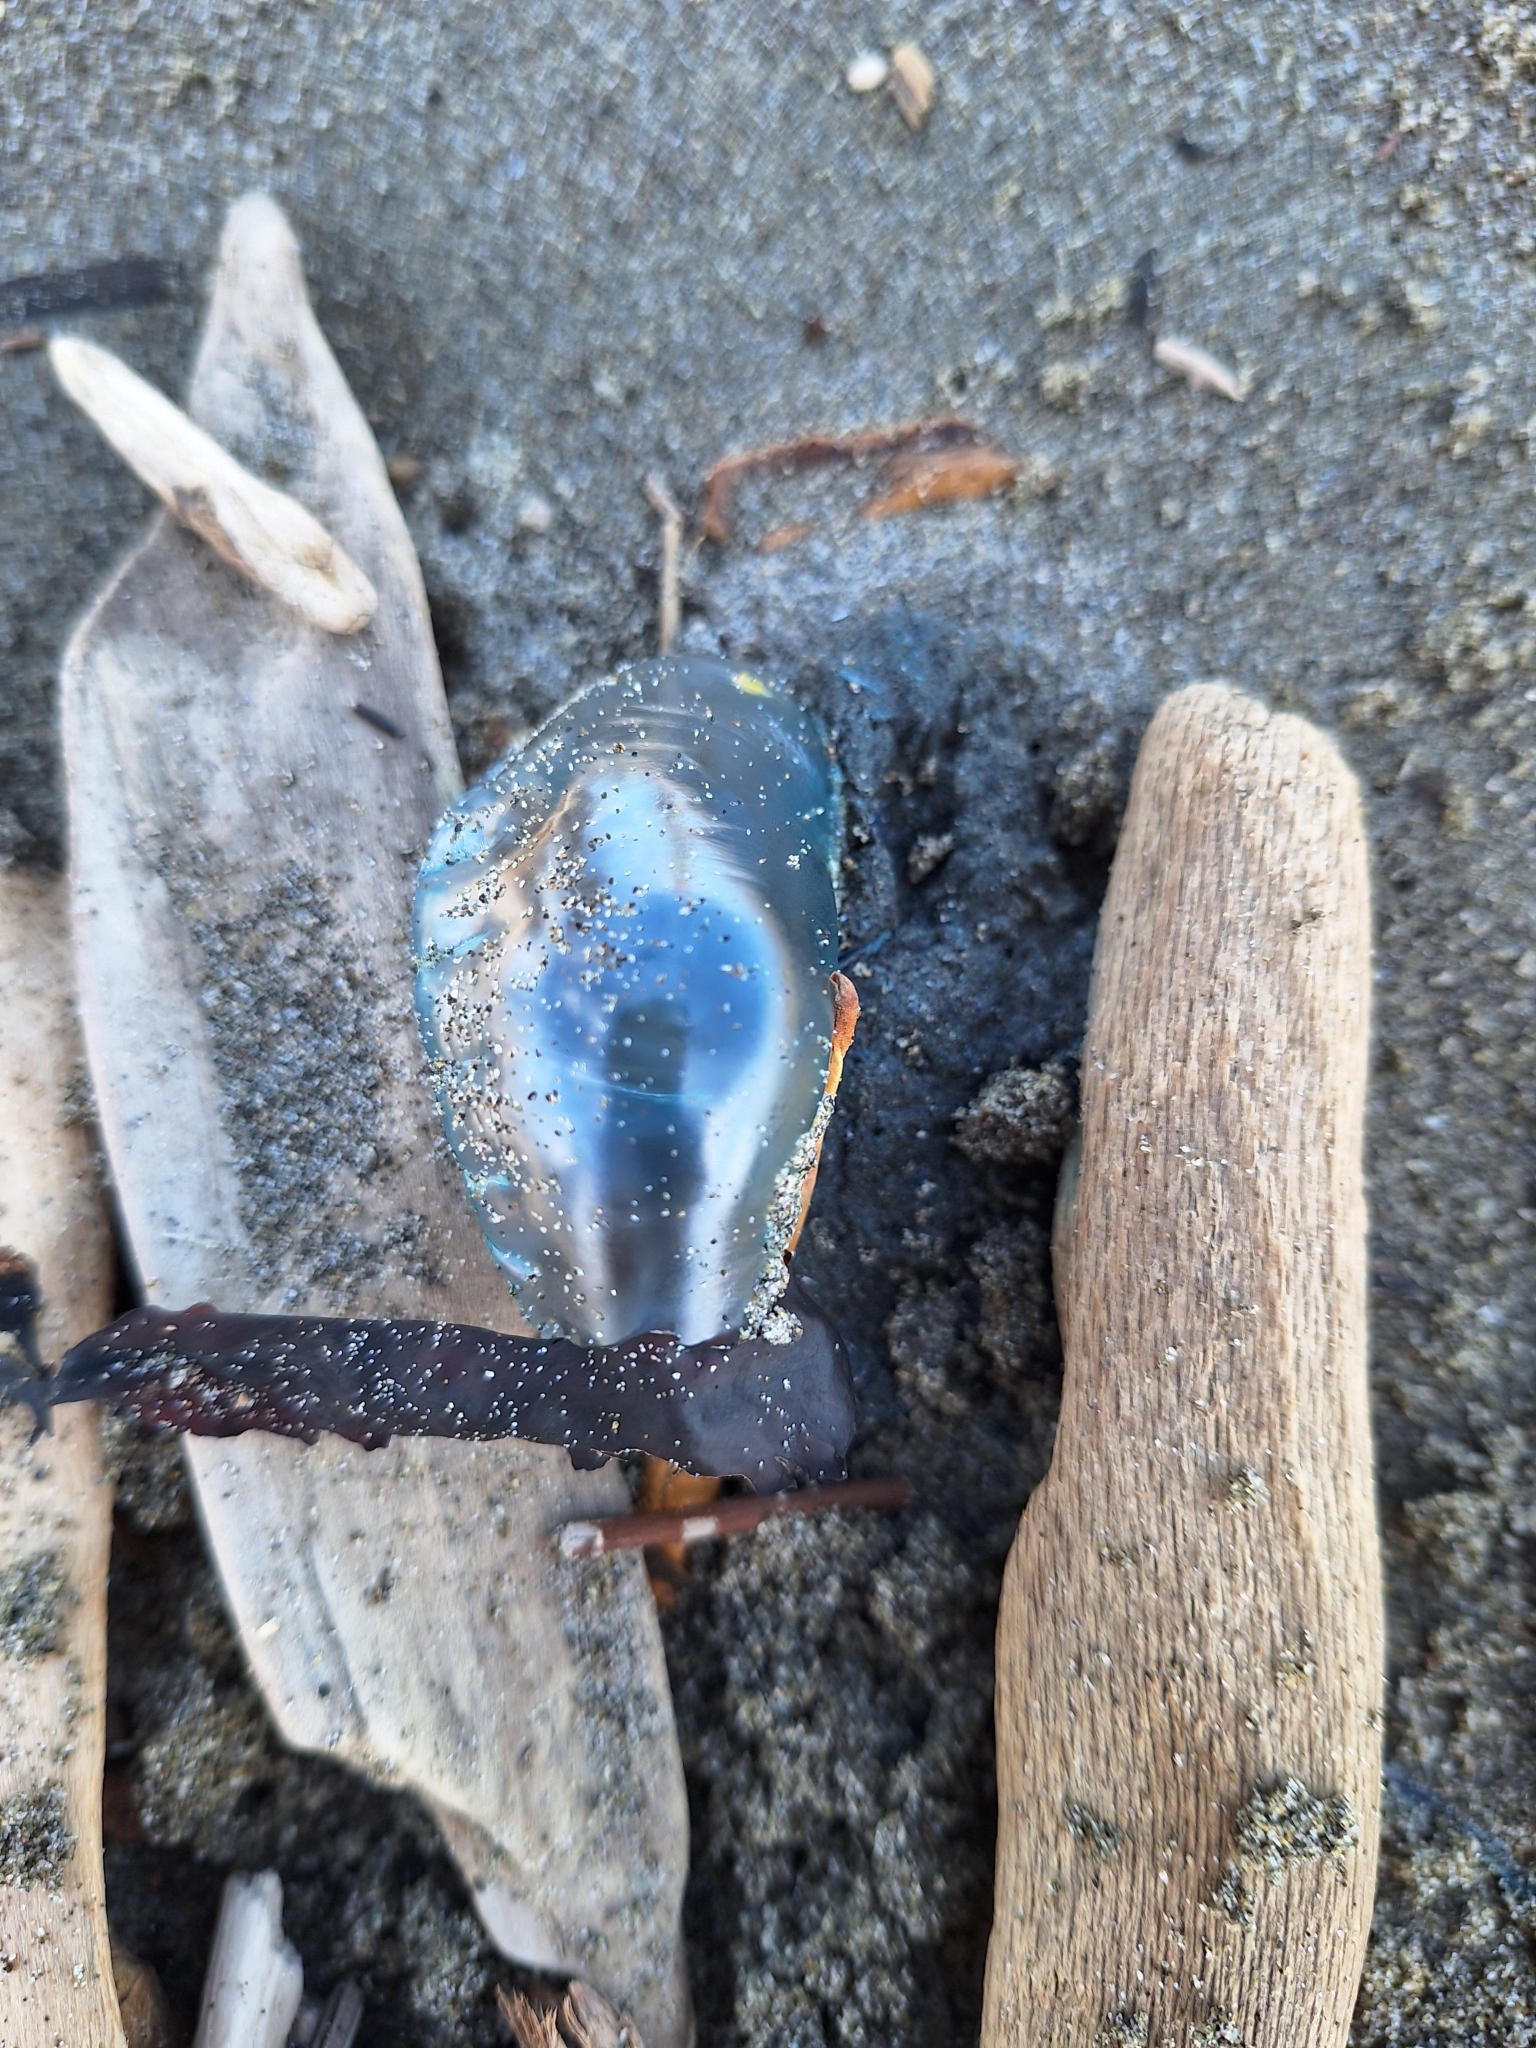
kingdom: Animalia
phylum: Cnidaria
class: Hydrozoa
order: Siphonophorae
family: Physaliidae
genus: Physalia
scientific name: Physalia physalis
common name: Portuguese man-of-war
